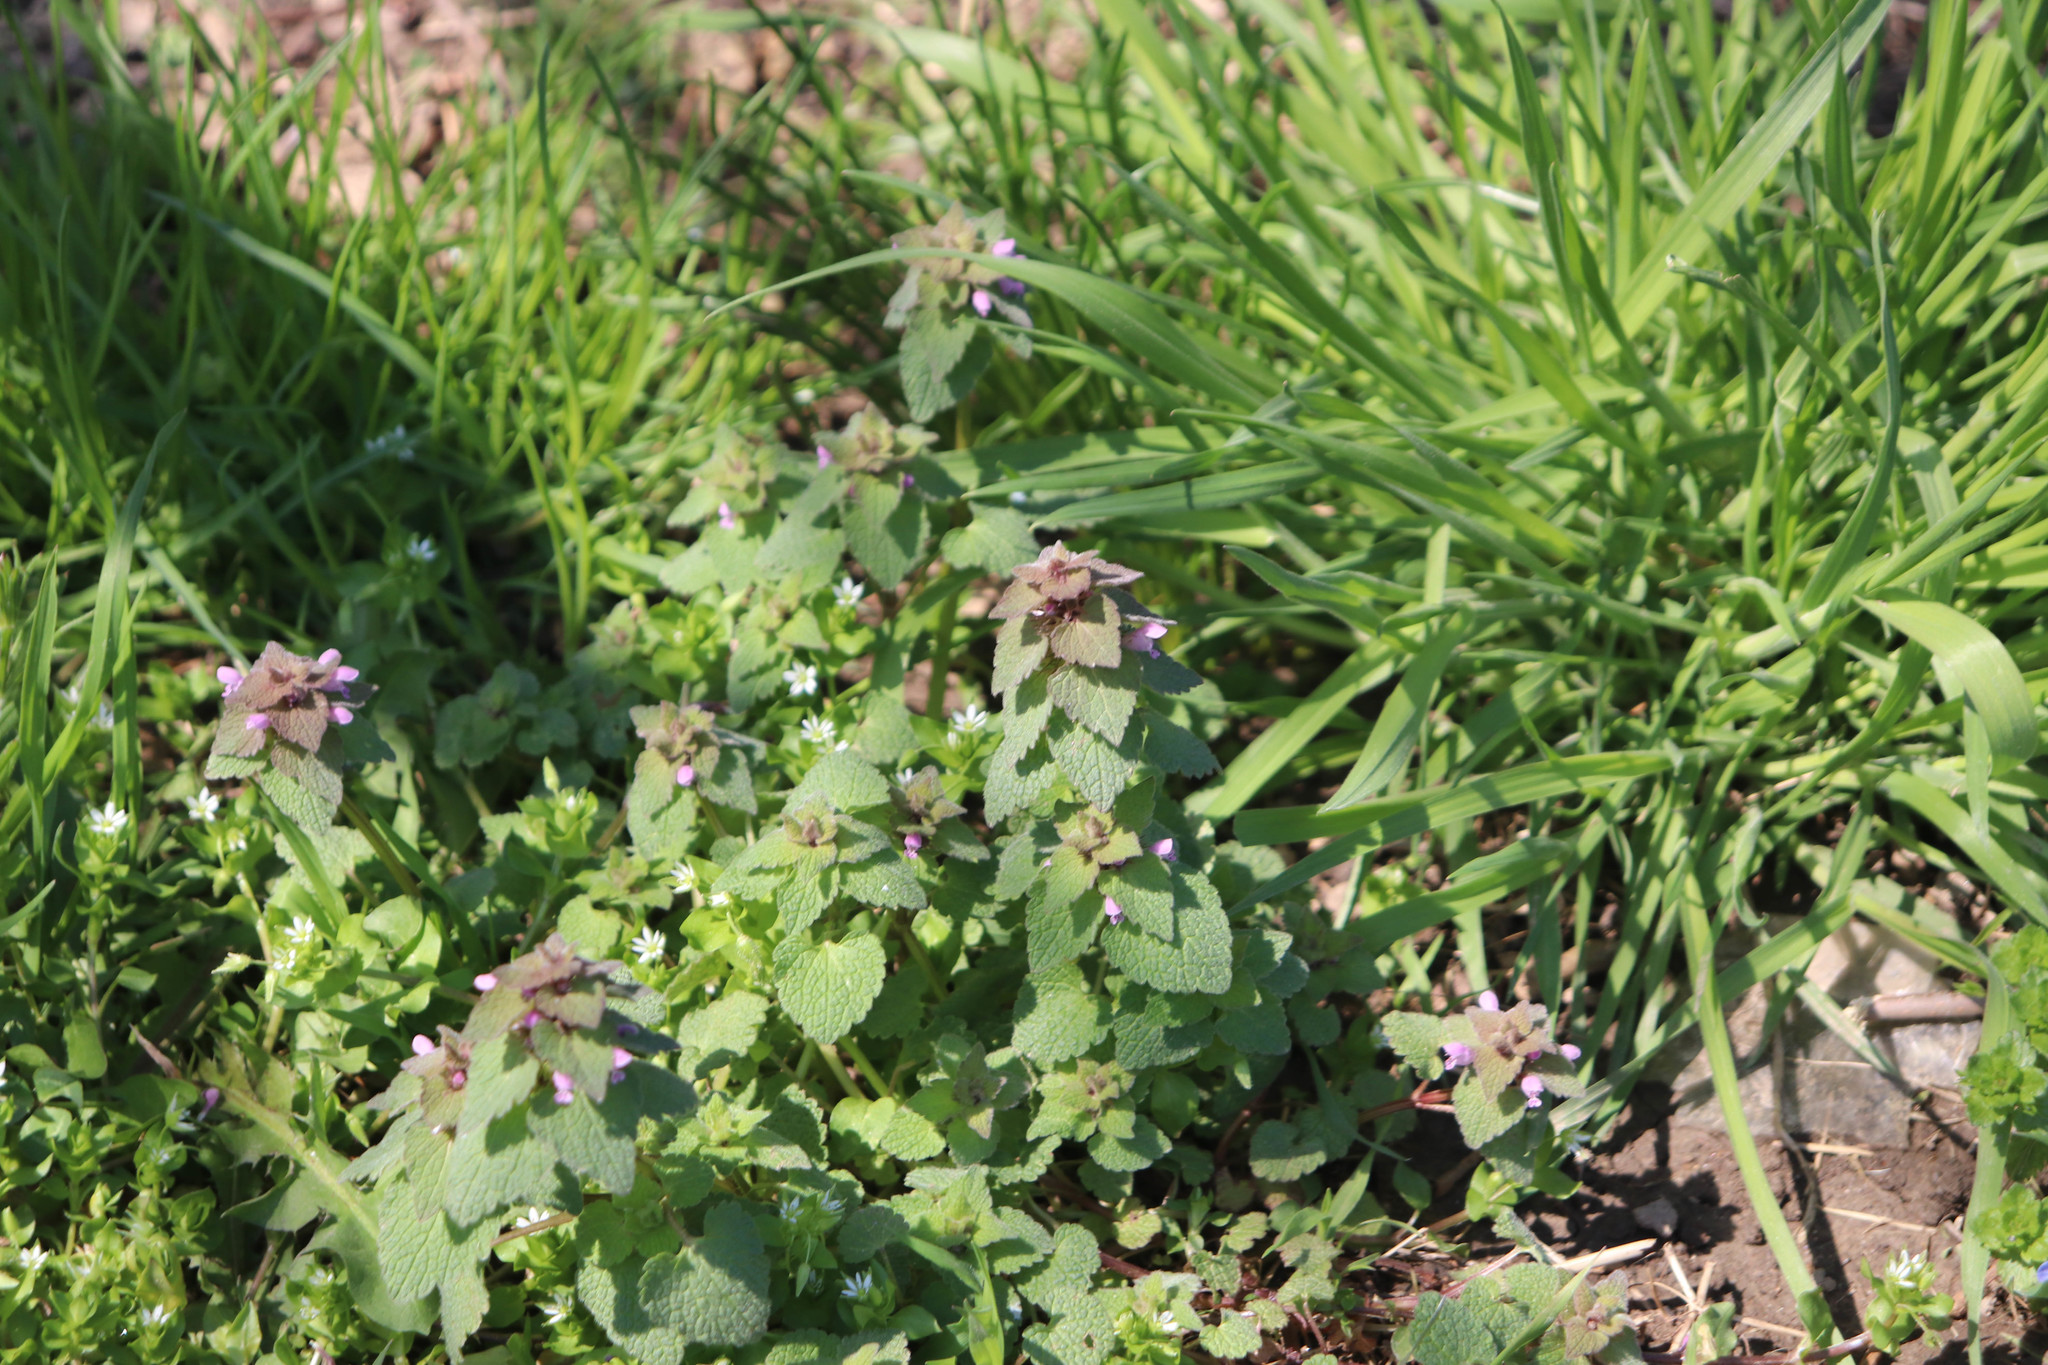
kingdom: Plantae
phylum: Tracheophyta
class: Magnoliopsida
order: Lamiales
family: Lamiaceae
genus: Lamium
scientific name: Lamium purpureum
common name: Red dead-nettle
